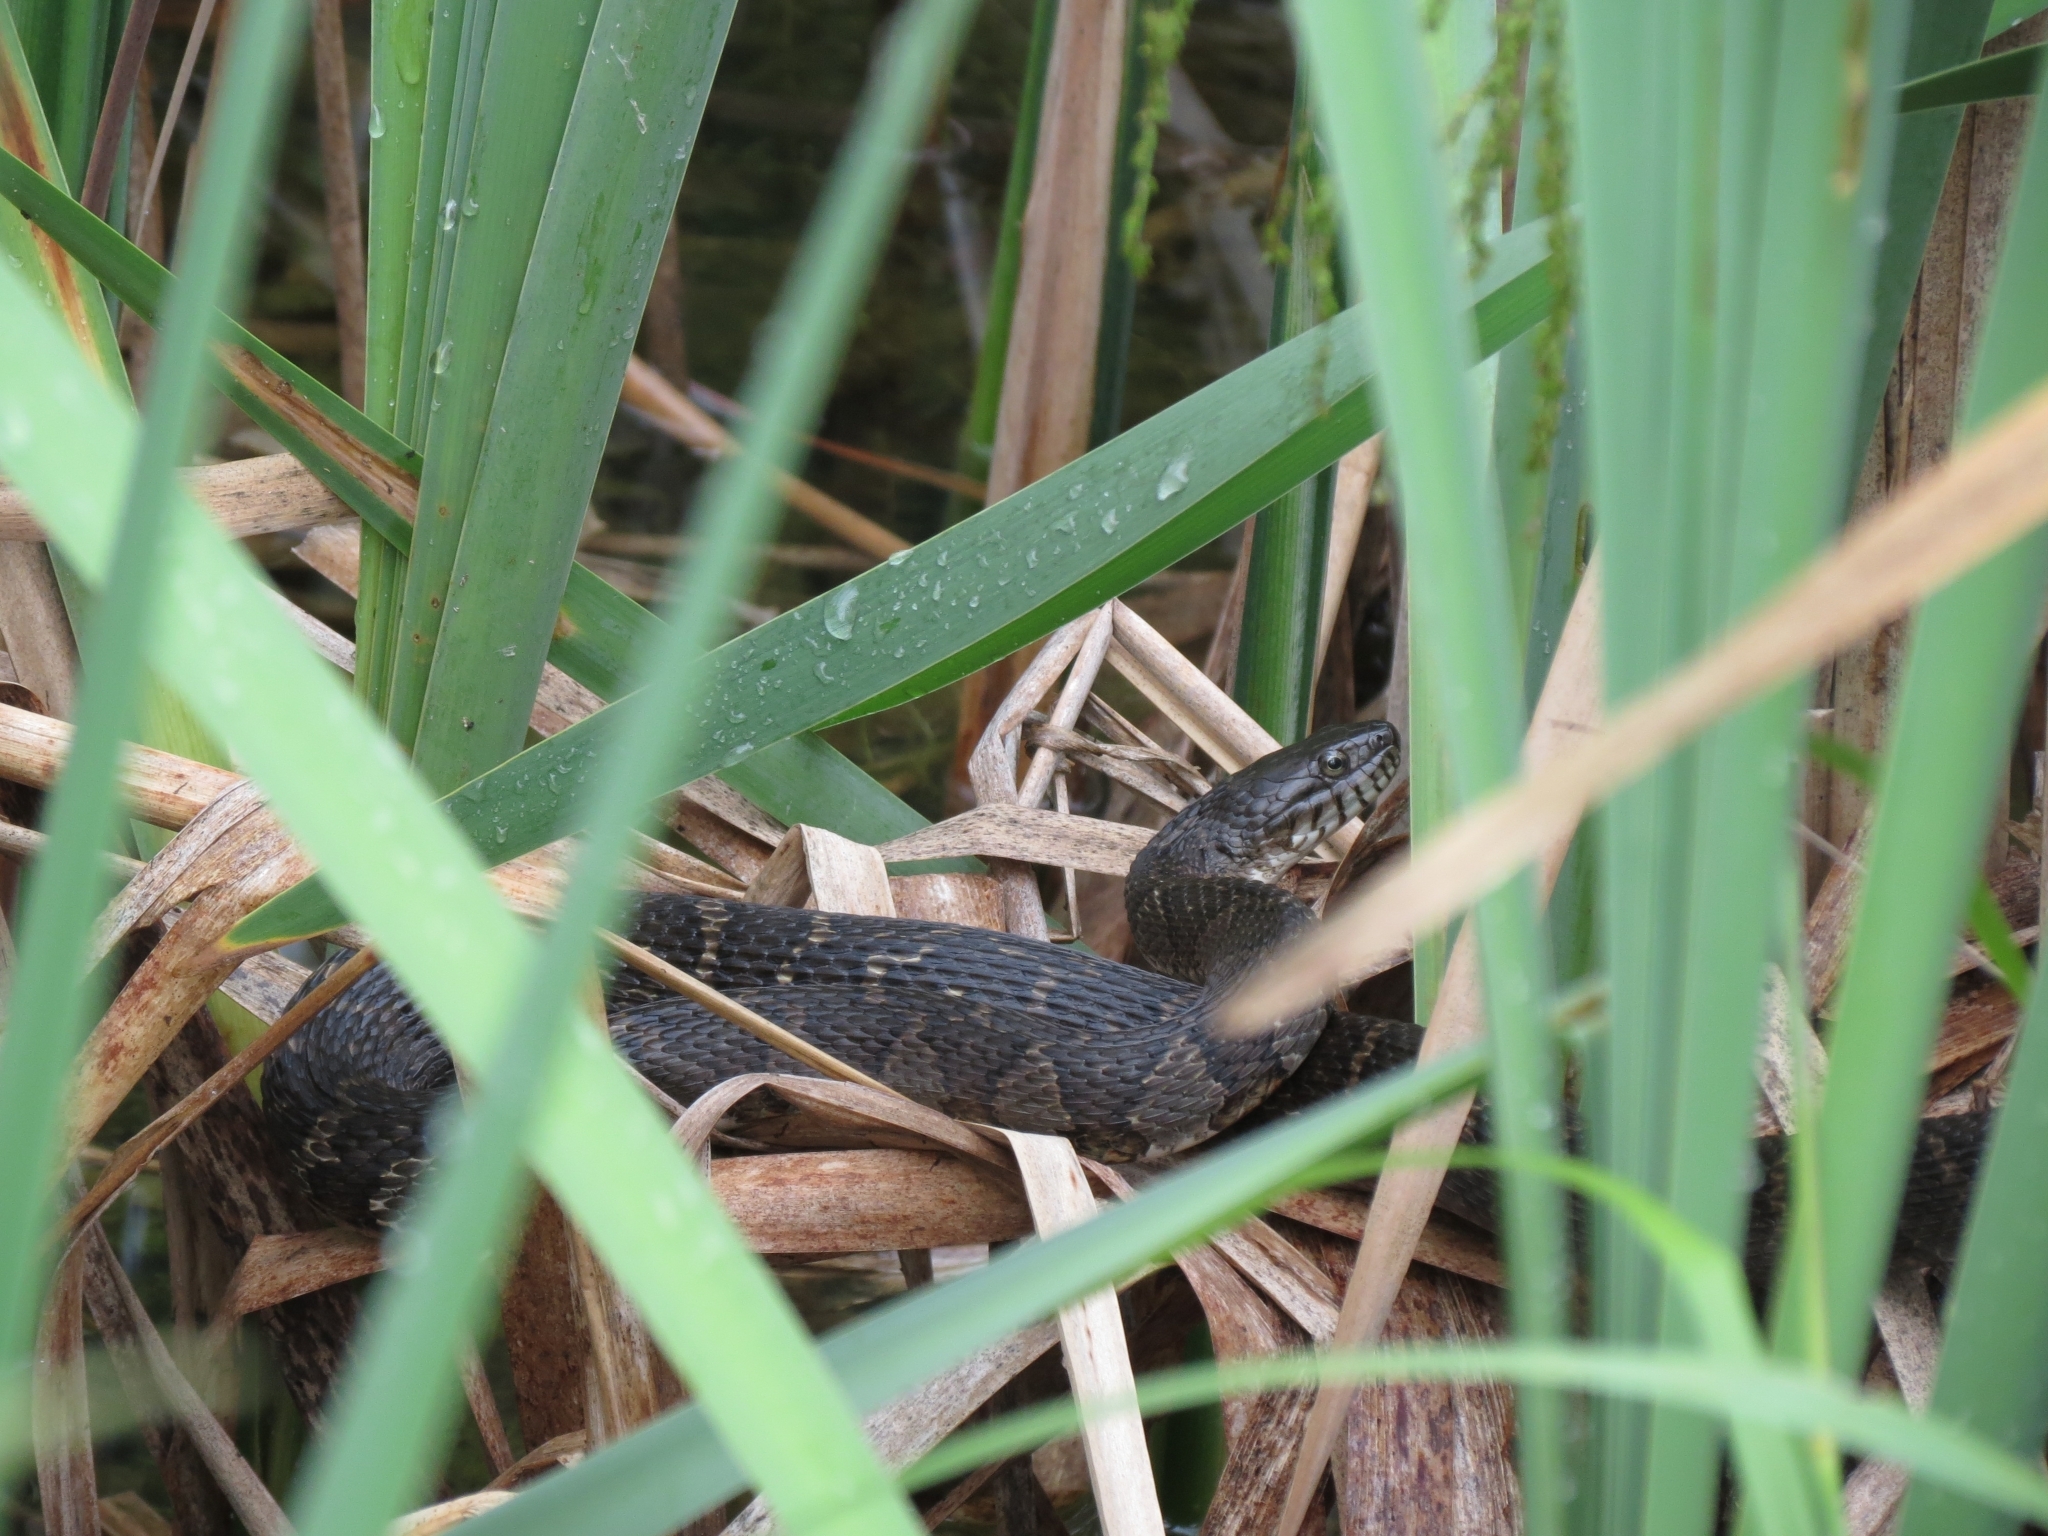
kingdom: Animalia
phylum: Chordata
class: Squamata
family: Colubridae
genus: Nerodia
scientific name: Nerodia sipedon
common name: Northern water snake
